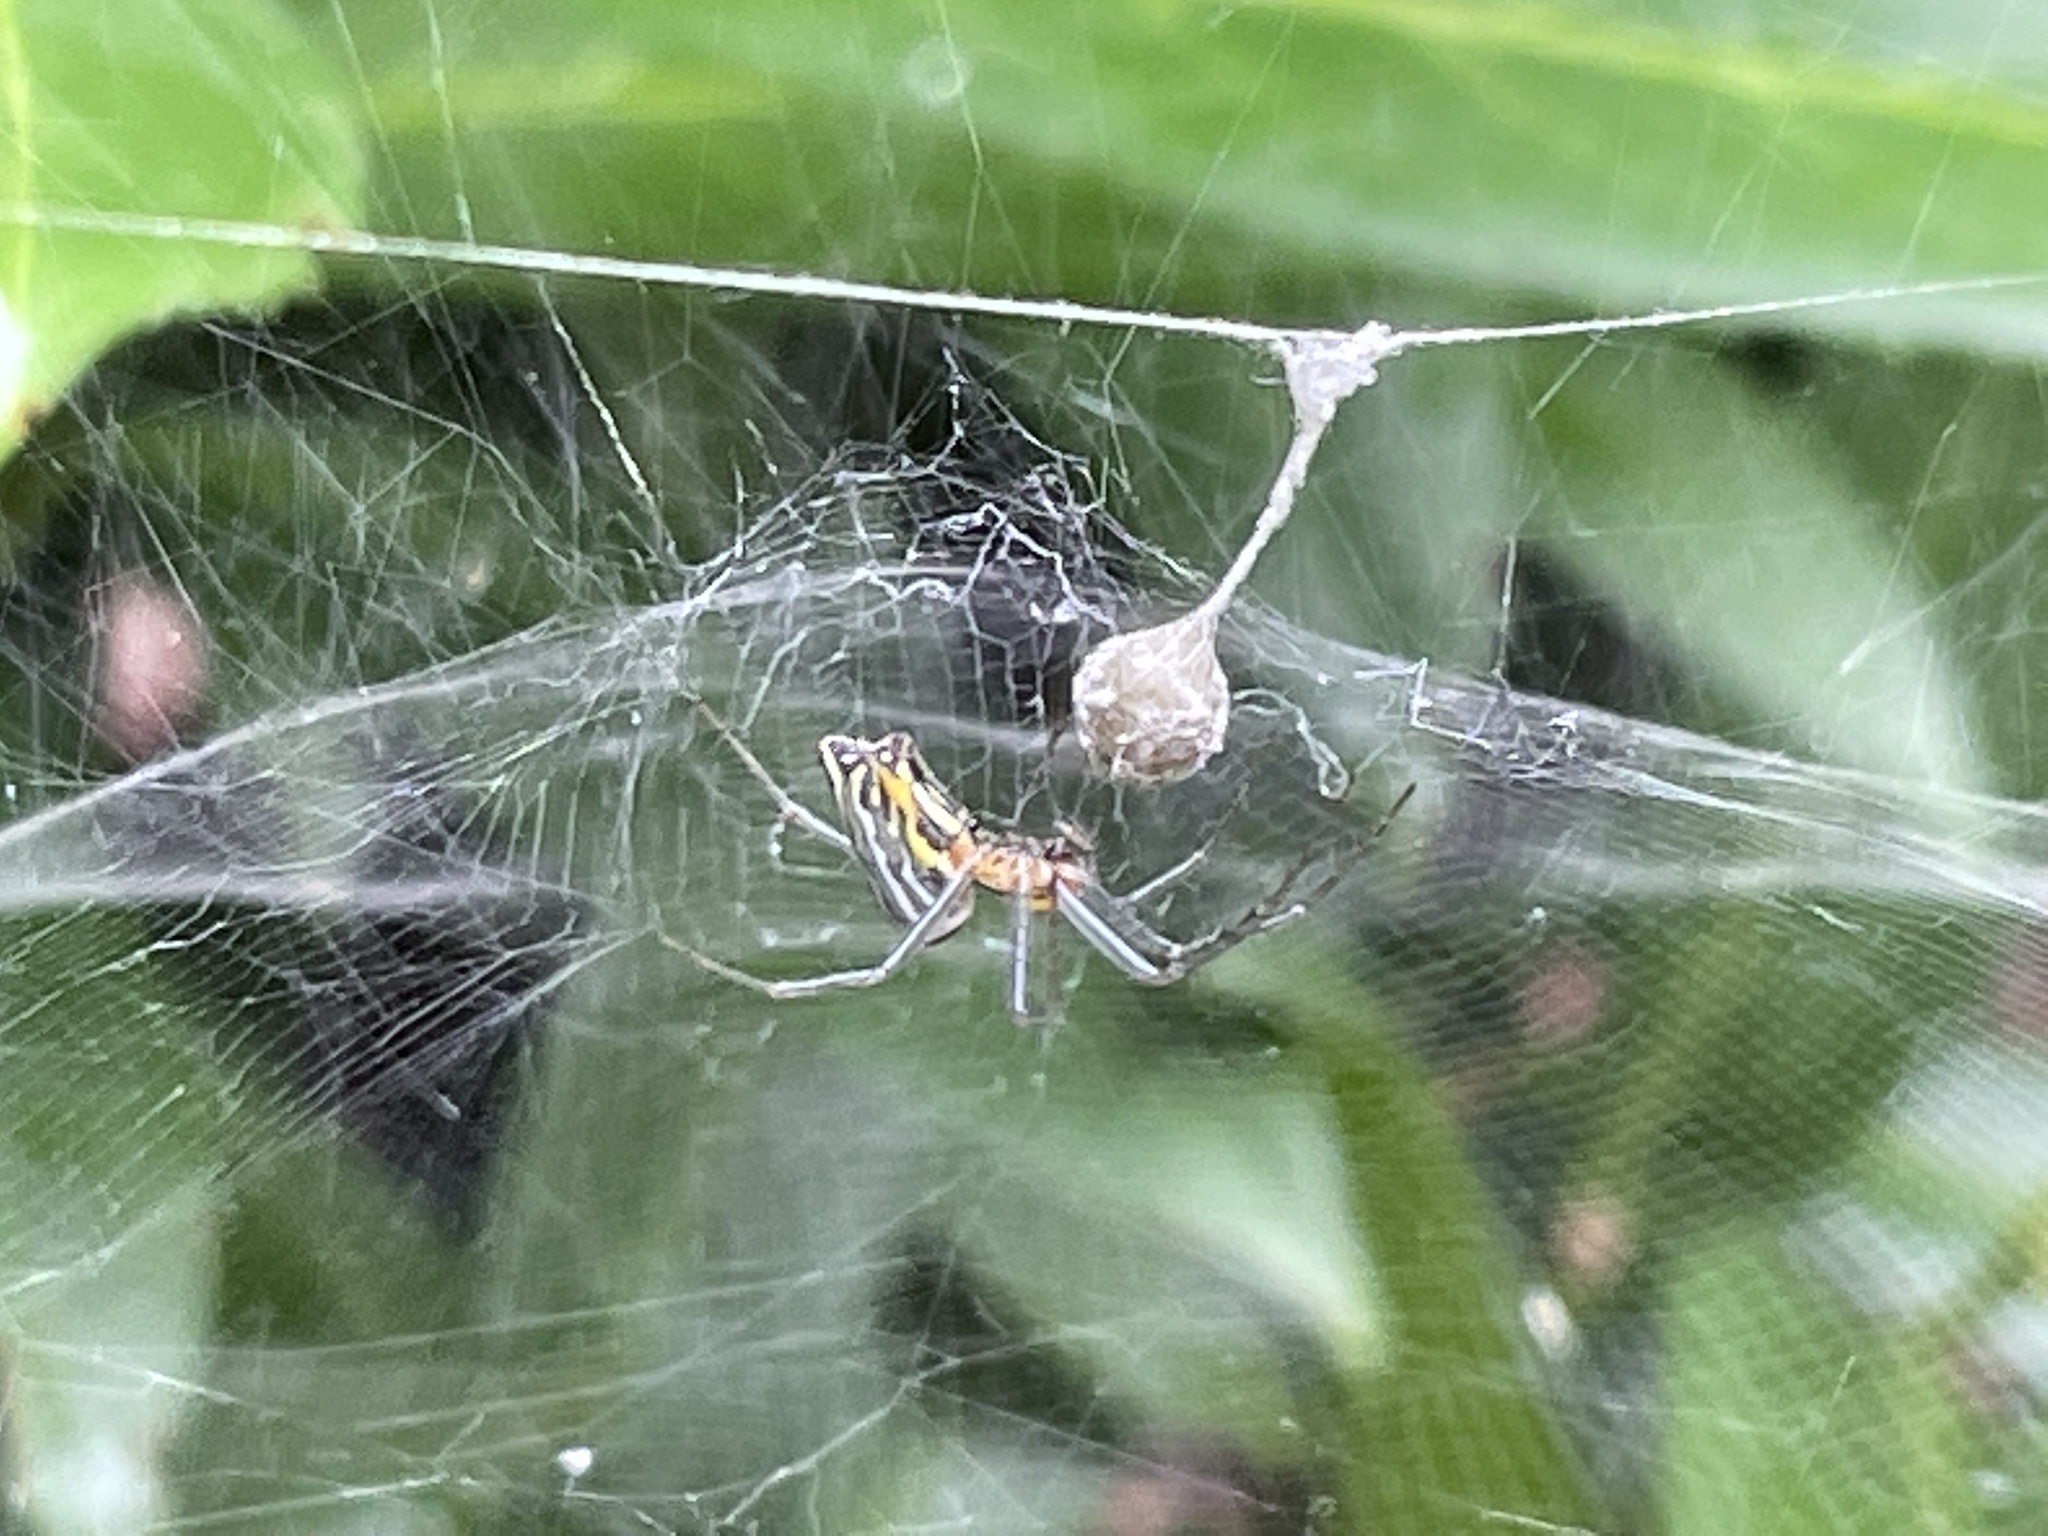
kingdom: Animalia
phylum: Arthropoda
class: Arachnida
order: Araneae
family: Araneidae
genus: Mecynogea
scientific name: Mecynogea lemniscata
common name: Orb weavers
